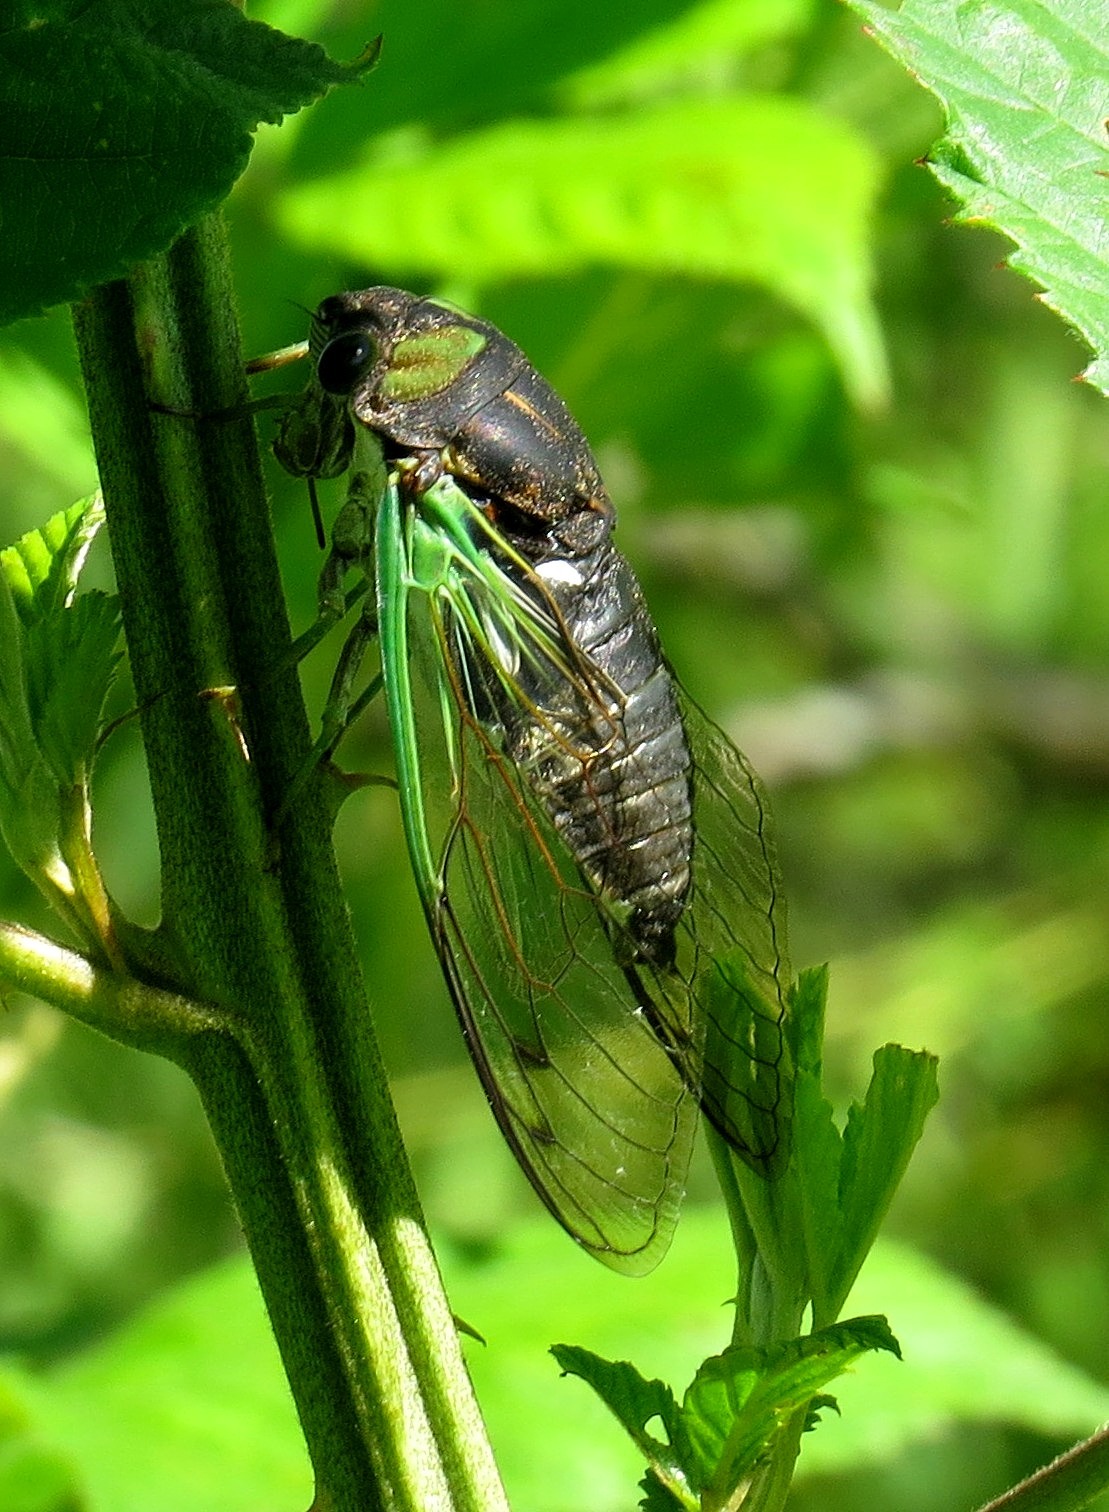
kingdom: Animalia
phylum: Arthropoda
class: Insecta
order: Hemiptera
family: Cicadidae
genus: Neotibicen
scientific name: Neotibicen tibicen
